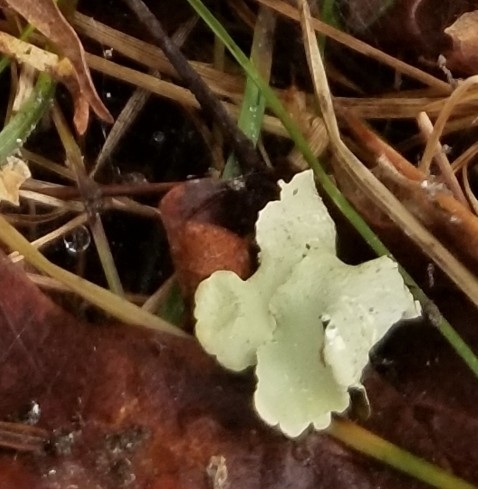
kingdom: Fungi
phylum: Ascomycota
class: Lecanoromycetes
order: Lecanorales
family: Parmeliaceae
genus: Flavoparmelia
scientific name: Flavoparmelia caperata
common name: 40-mile per hour lichen
